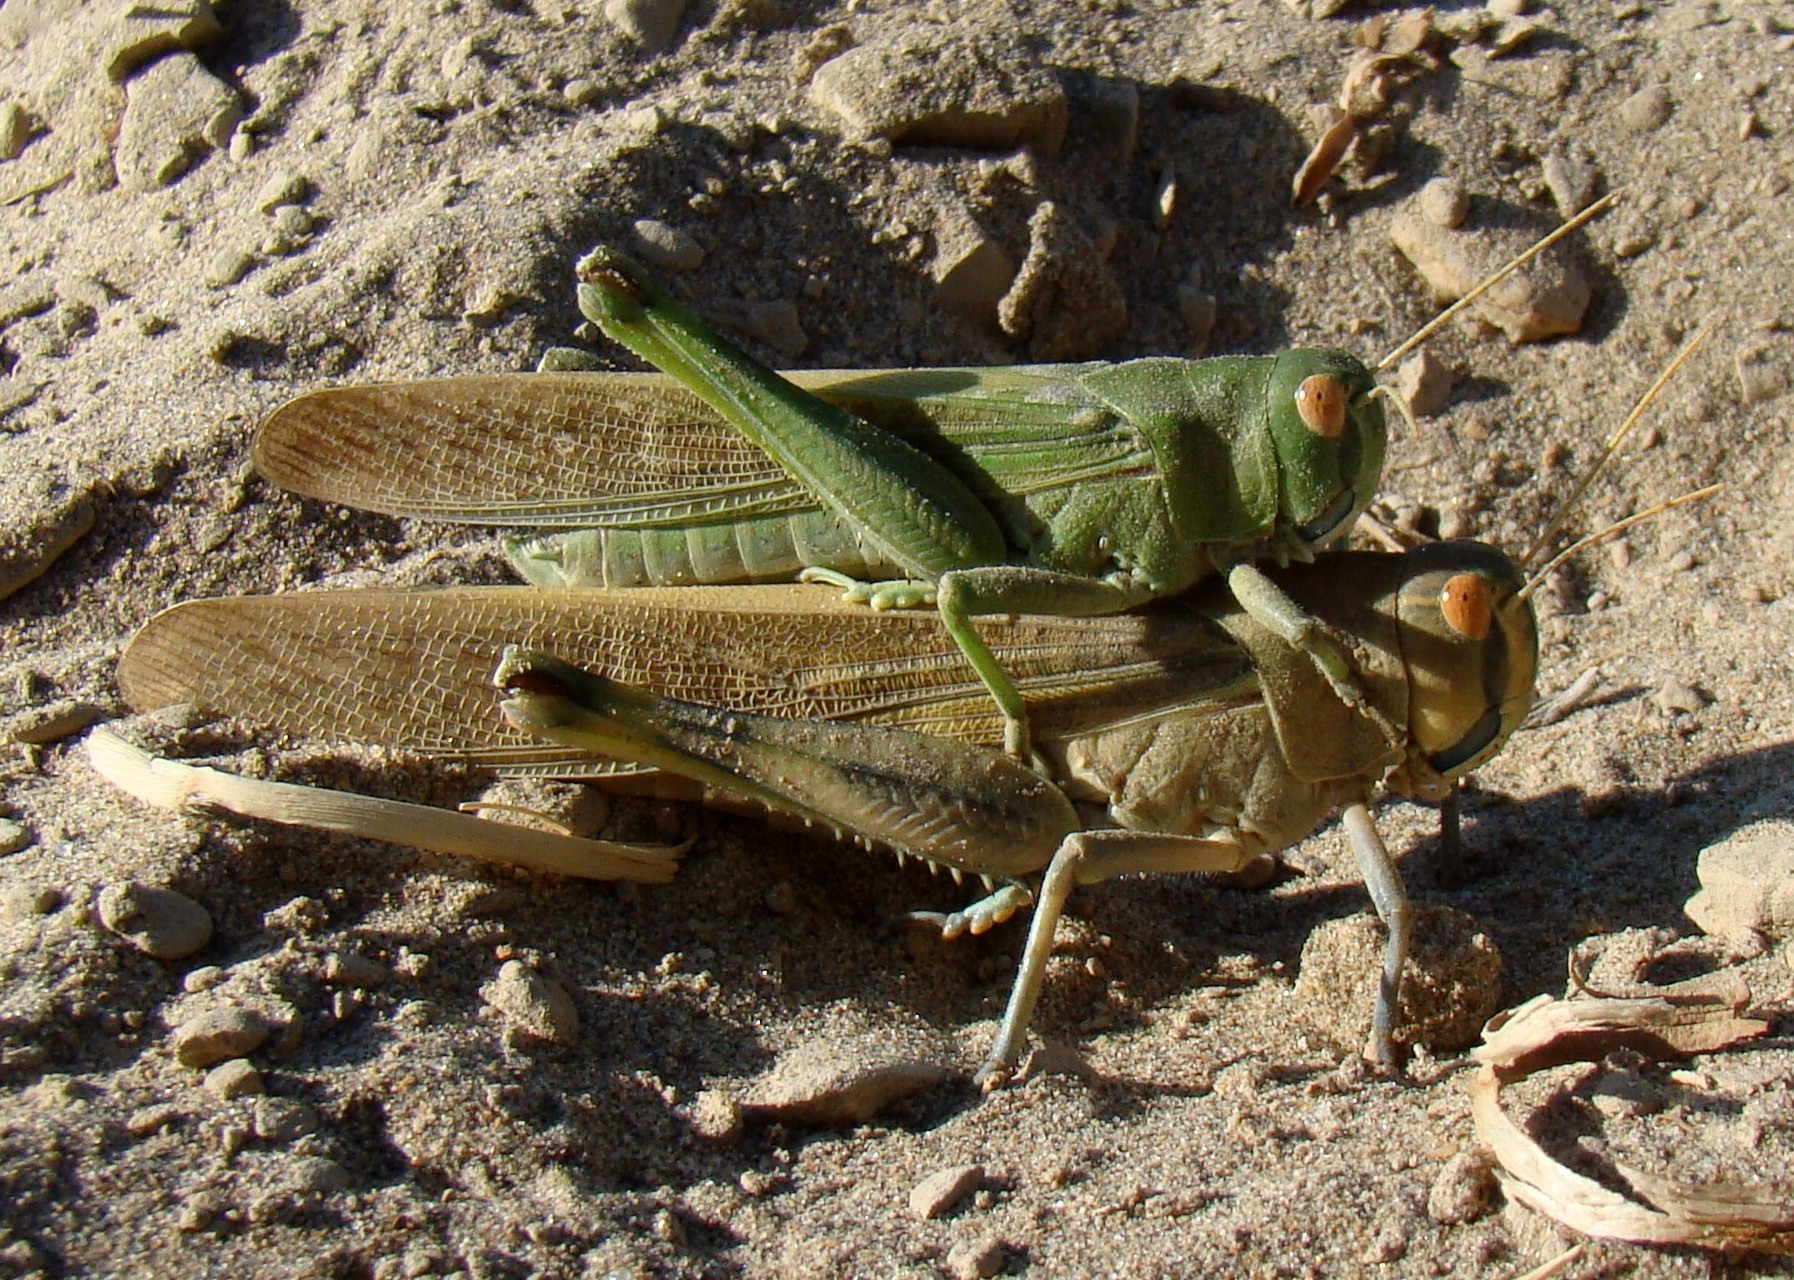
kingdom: Animalia
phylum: Arthropoda
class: Insecta
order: Orthoptera
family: Acrididae
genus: Locusta
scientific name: Locusta migratoria
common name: Migratory locust
